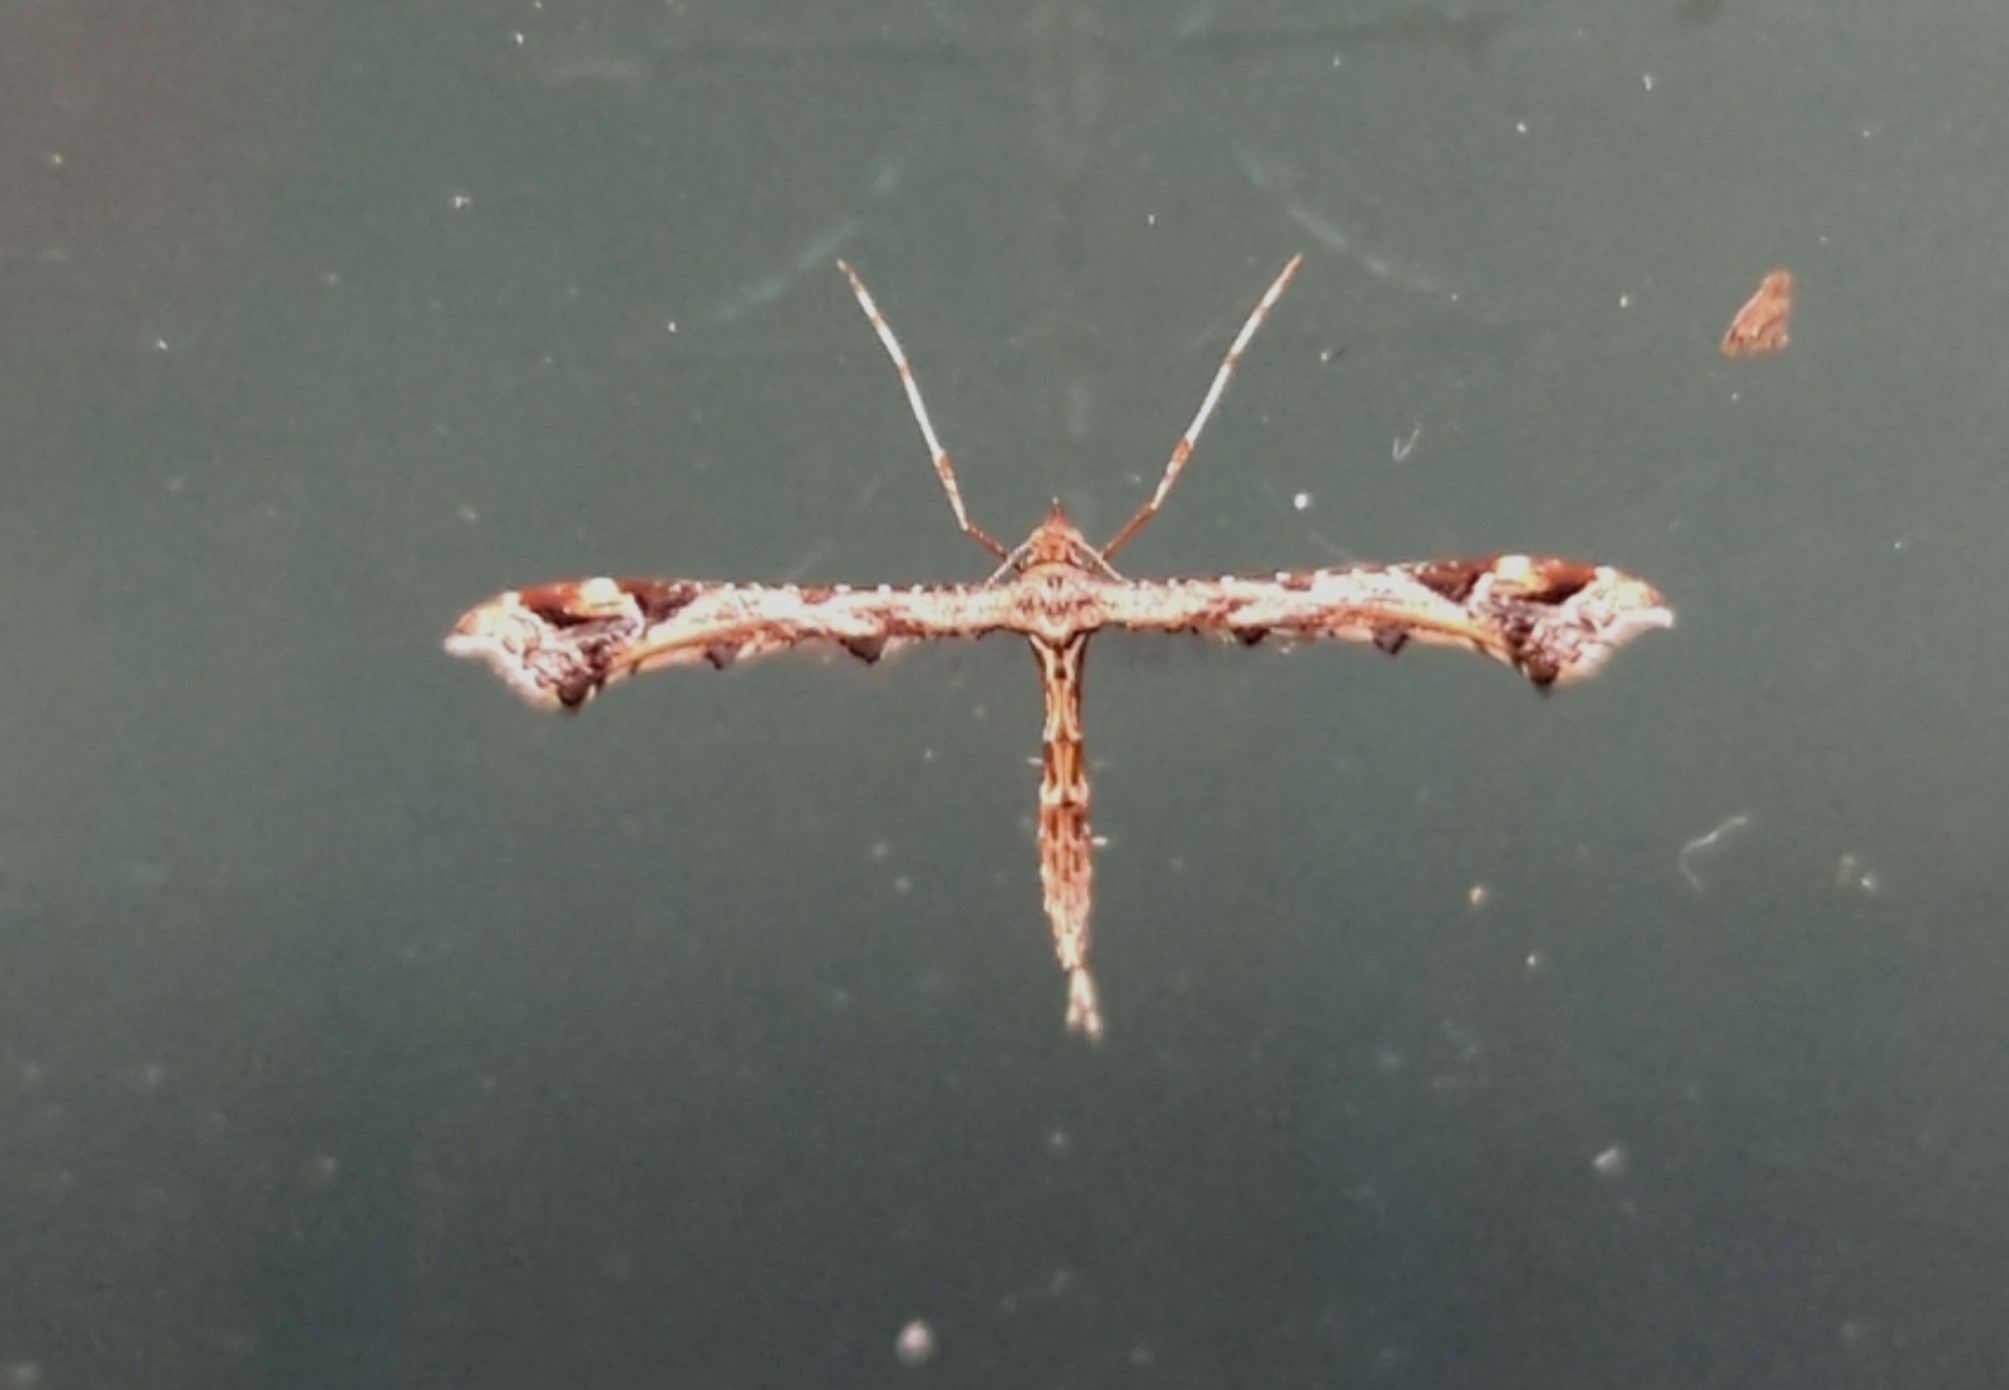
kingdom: Animalia
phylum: Arthropoda
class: Insecta
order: Lepidoptera
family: Pterophoridae
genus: Amblyptilia
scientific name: Amblyptilia acanthadactyla
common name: Beautiful plume
